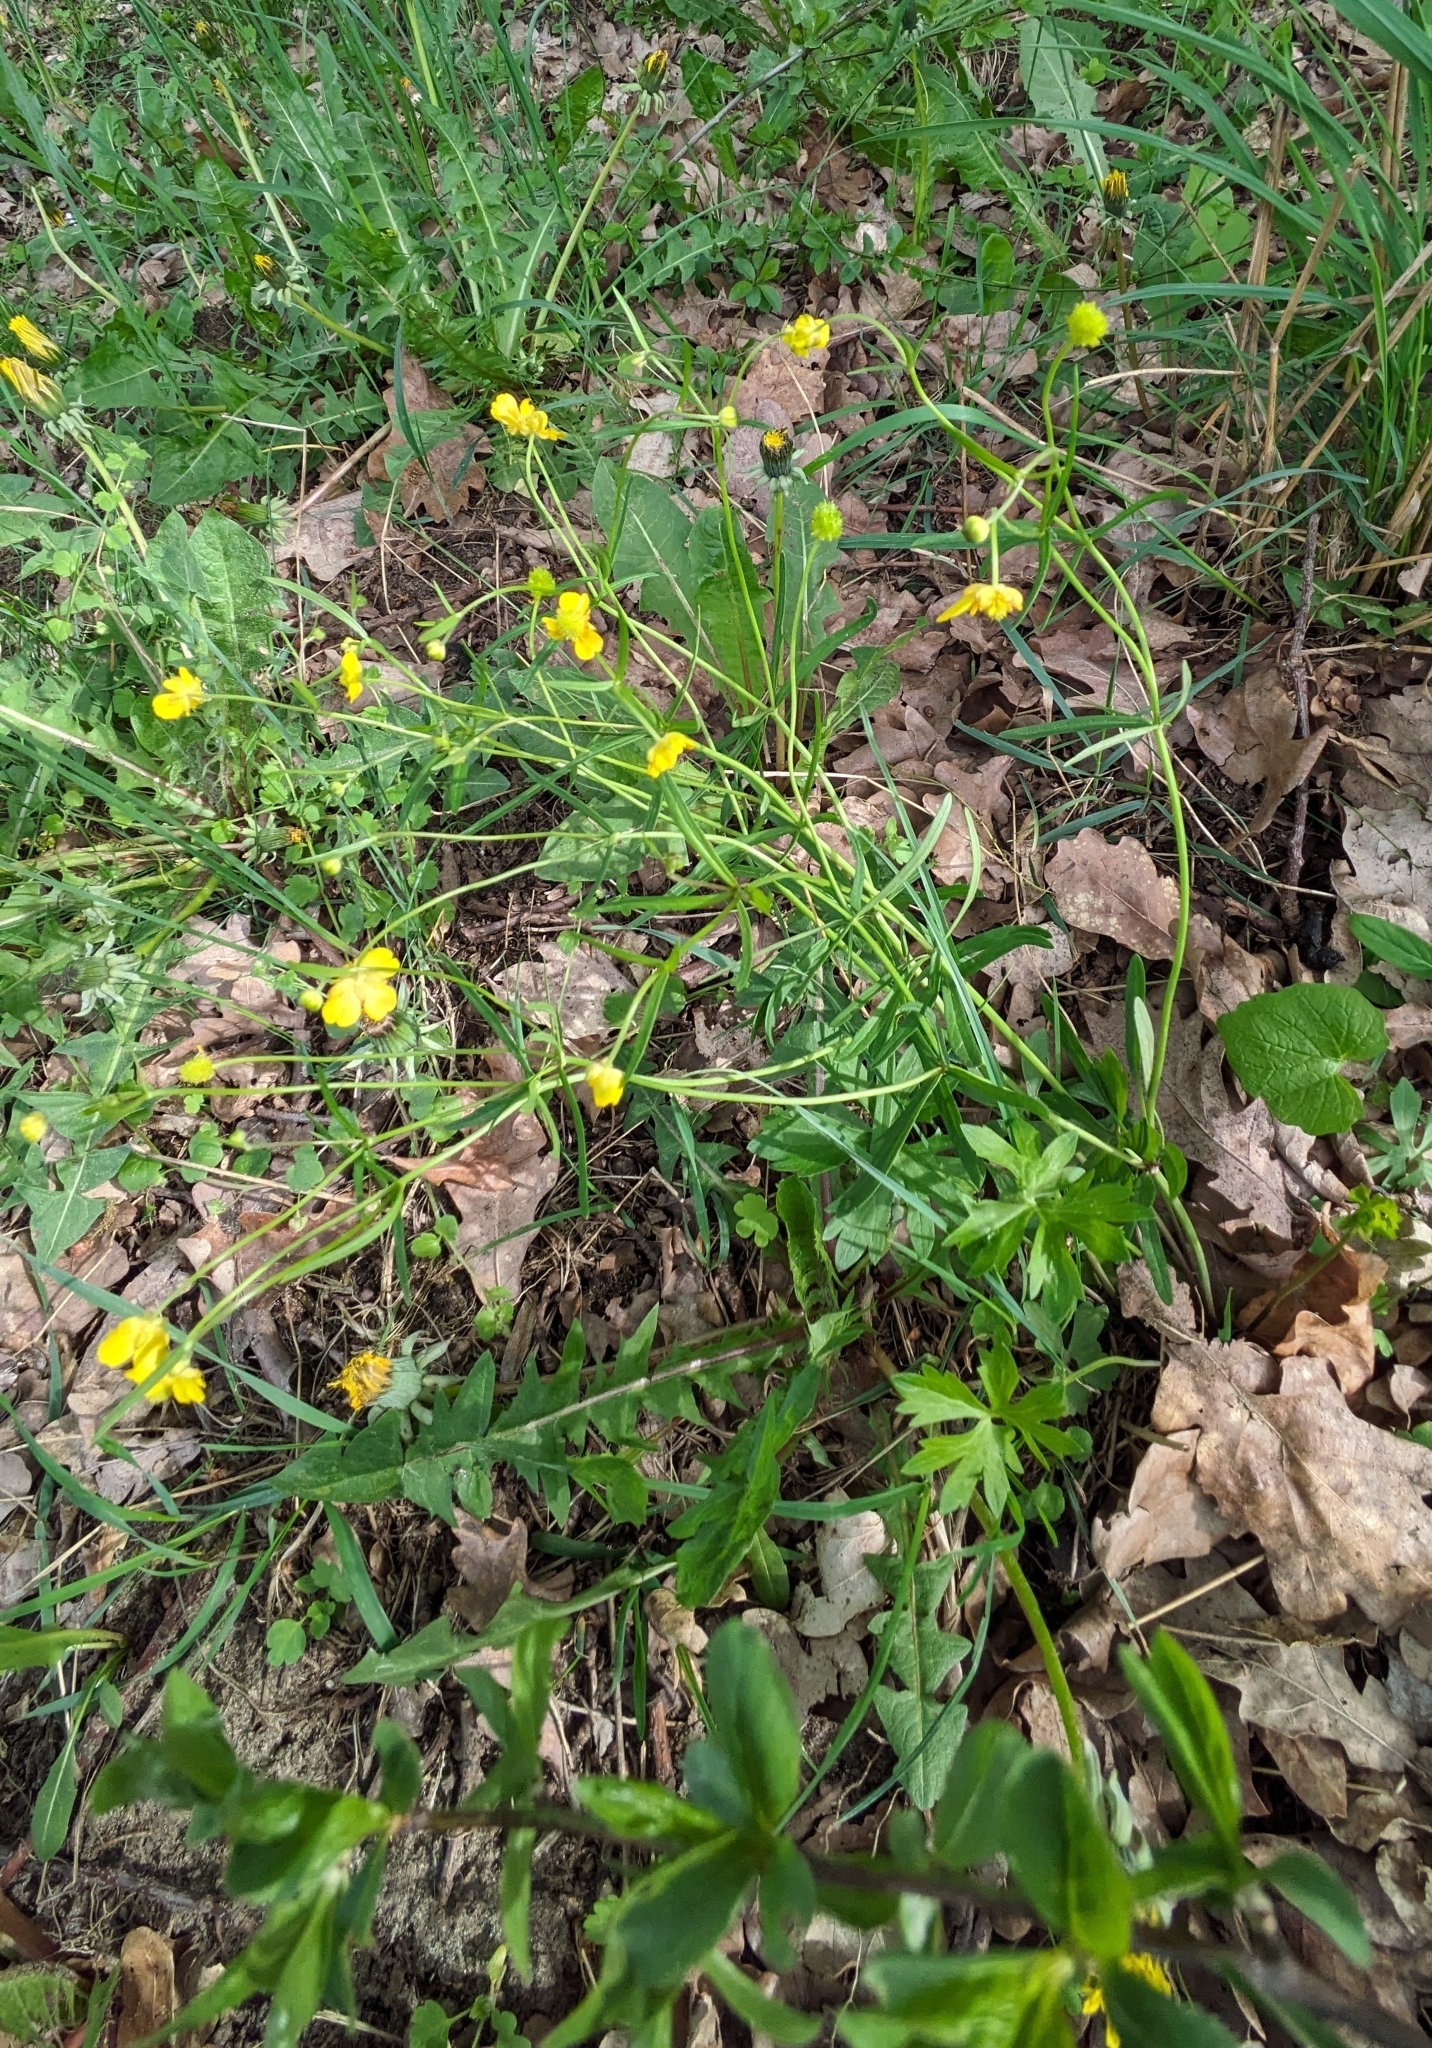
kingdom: Plantae
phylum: Tracheophyta
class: Magnoliopsida
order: Ranunculales
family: Ranunculaceae
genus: Ranunculus
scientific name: Ranunculus acris
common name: Meadow buttercup
